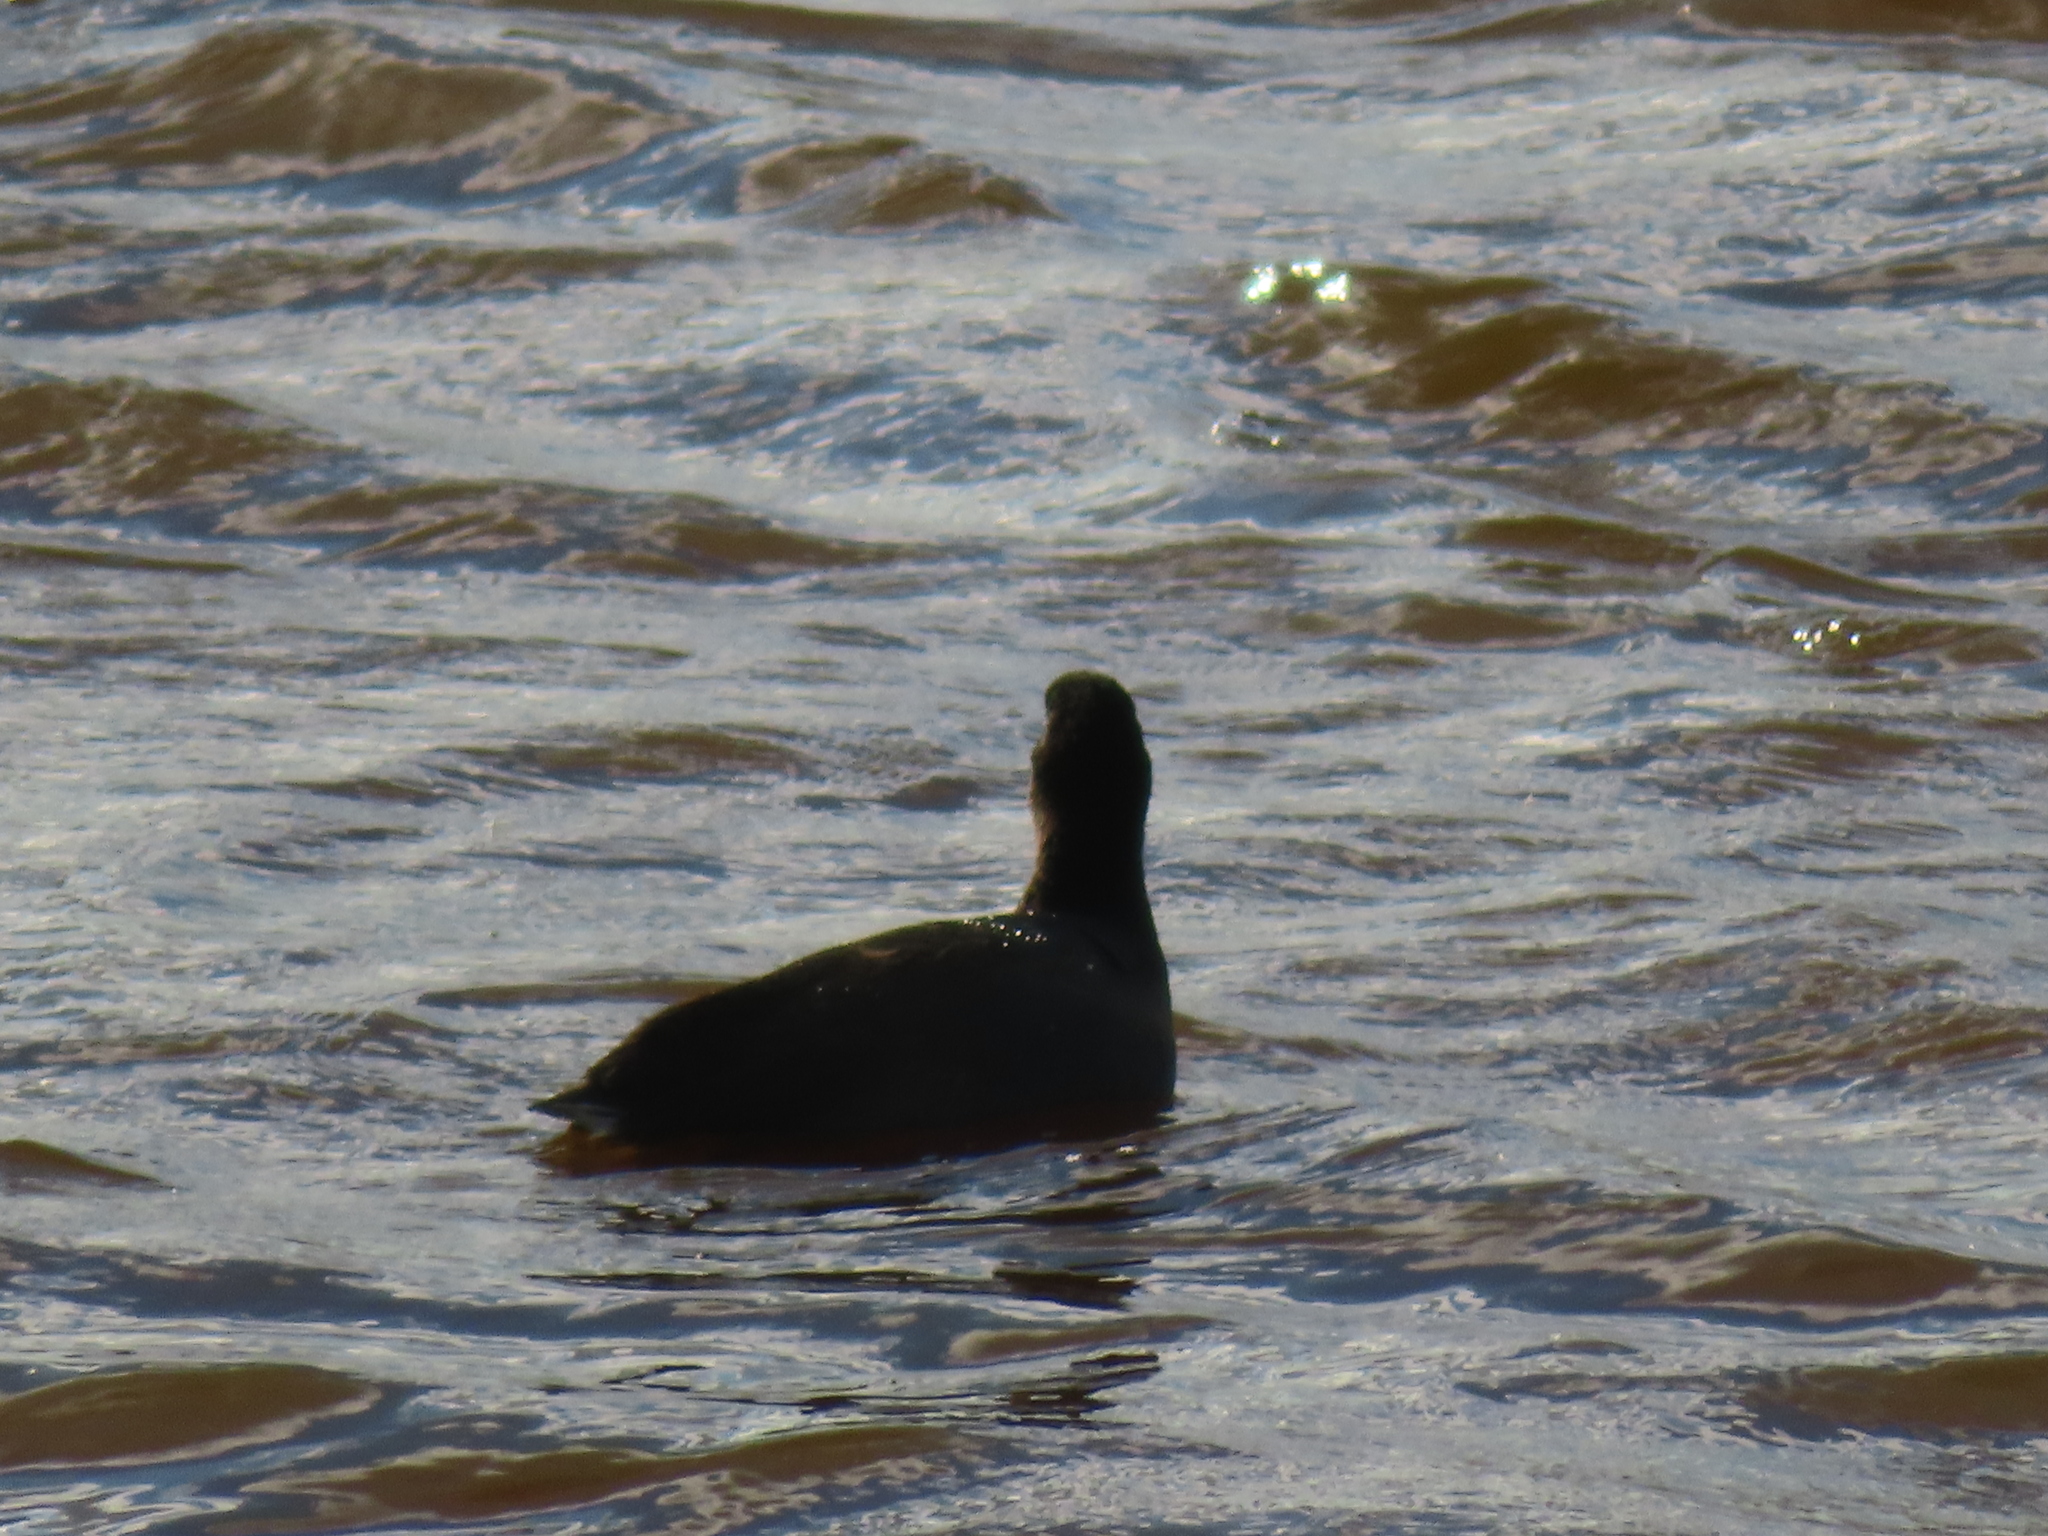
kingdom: Animalia
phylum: Chordata
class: Aves
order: Gruiformes
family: Rallidae
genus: Fulica
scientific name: Fulica americana
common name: American coot
